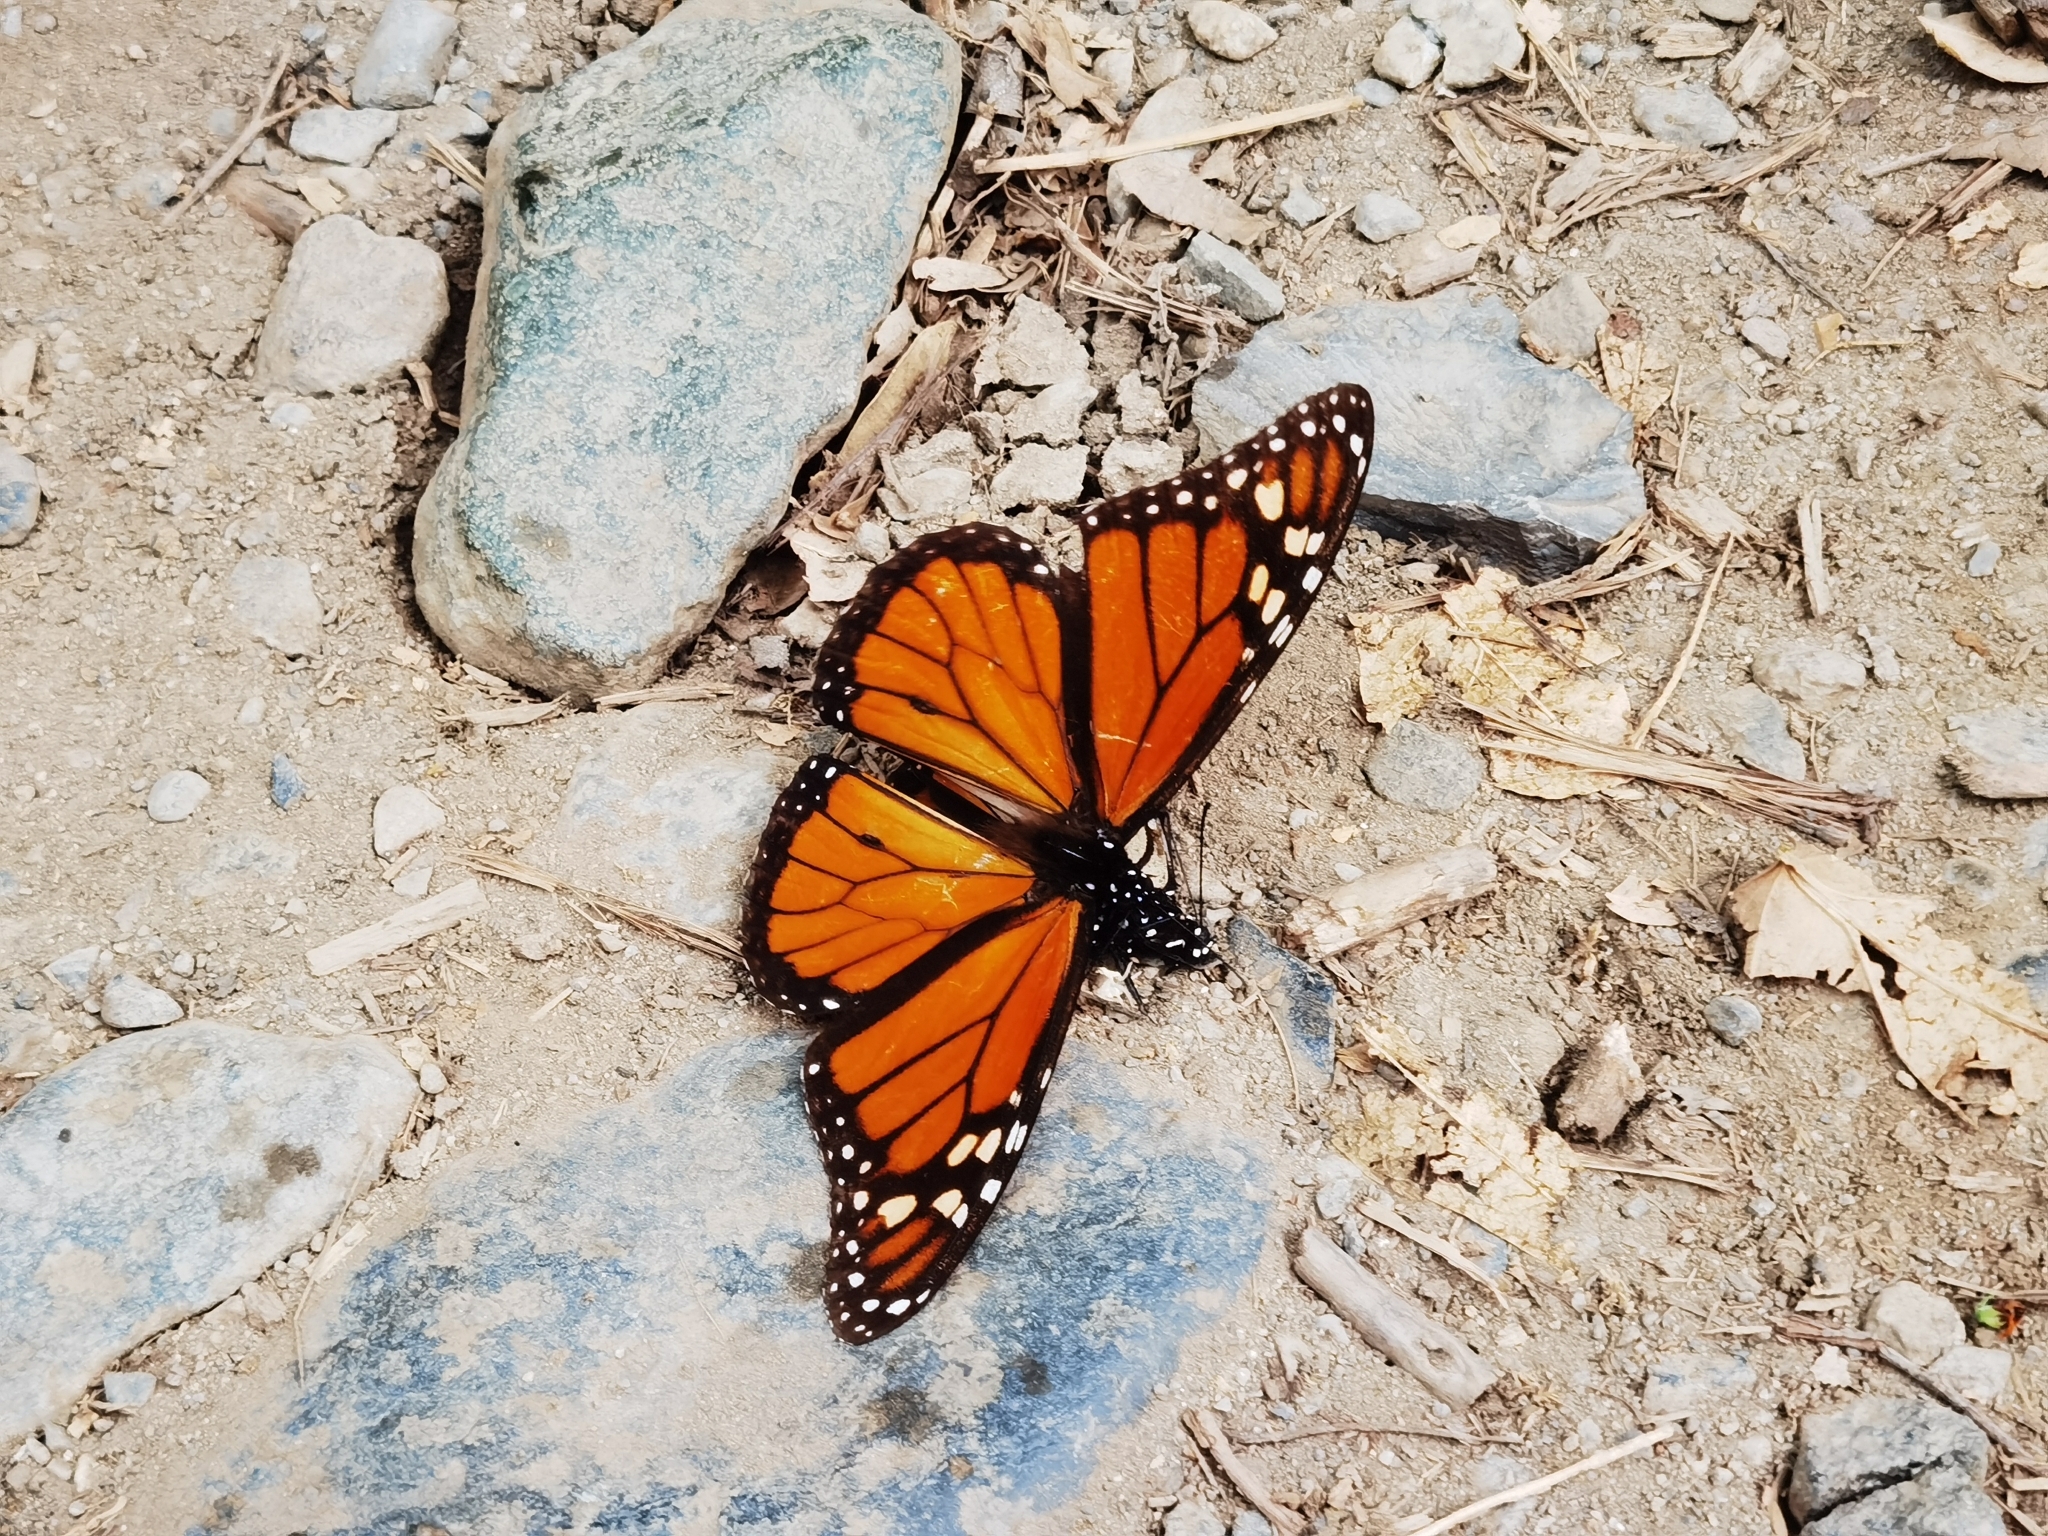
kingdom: Animalia
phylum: Arthropoda
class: Insecta
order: Lepidoptera
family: Nymphalidae
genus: Danaus
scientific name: Danaus plexippus
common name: Monarch
